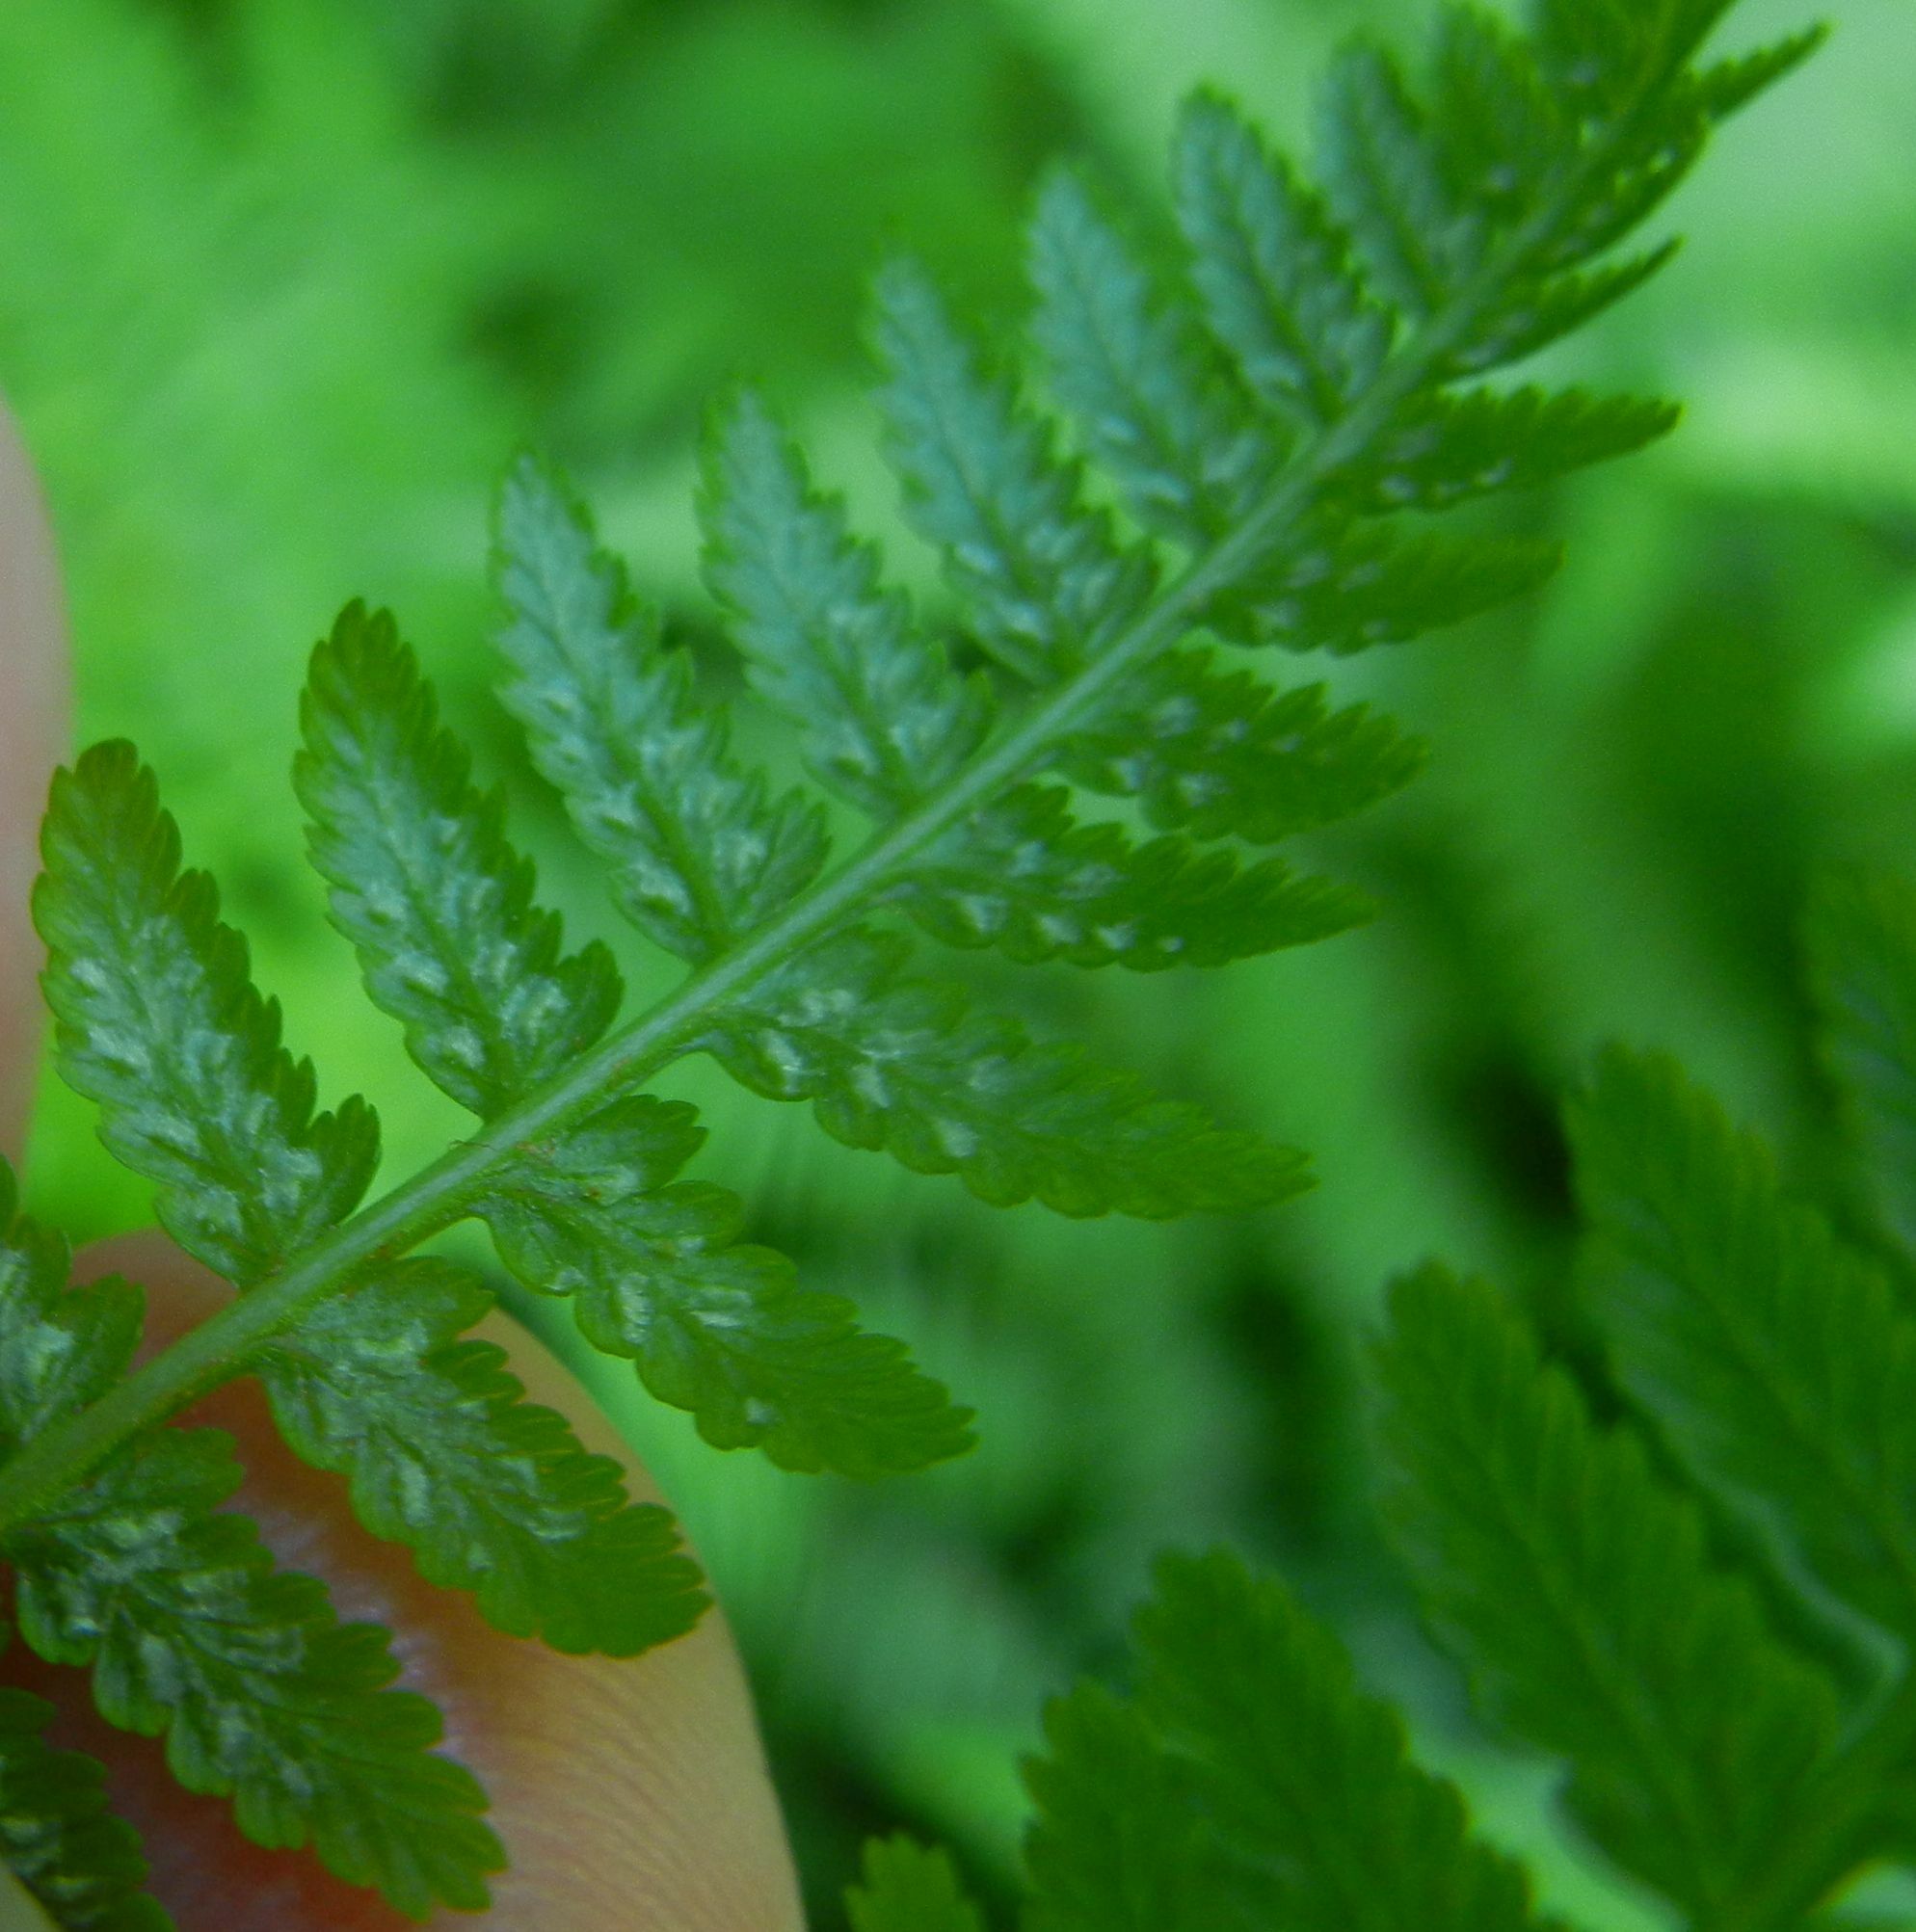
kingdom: Plantae
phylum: Tracheophyta
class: Polypodiopsida
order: Polypodiales
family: Athyriaceae
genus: Athyrium
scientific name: Athyrium filix-femina
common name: Lady fern
